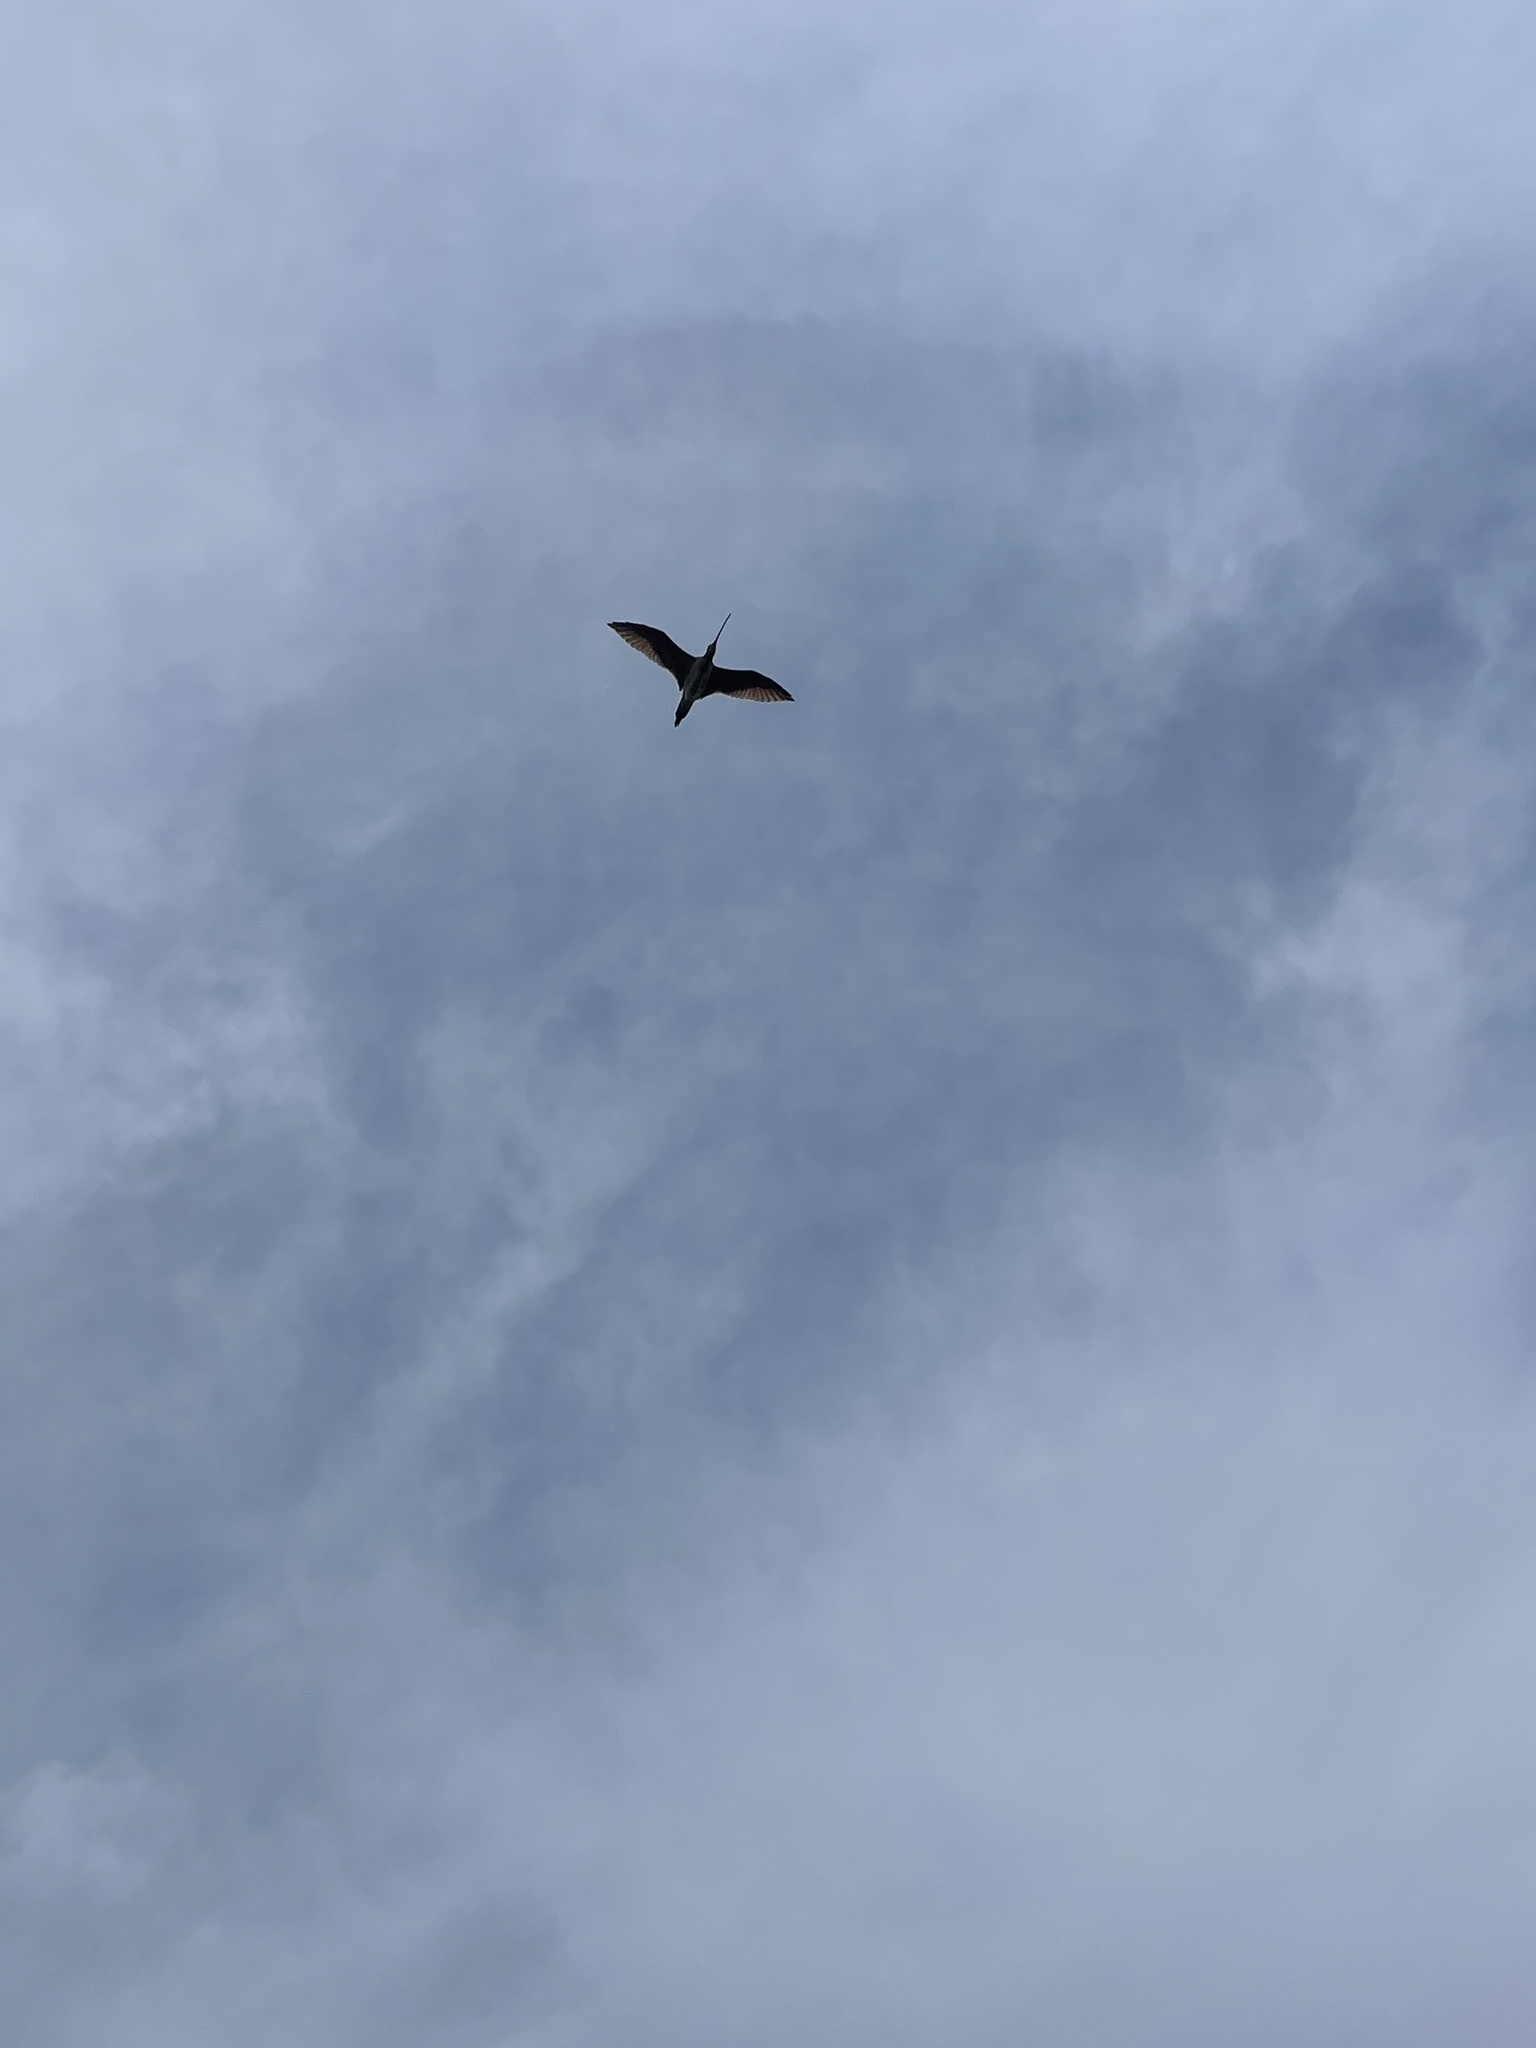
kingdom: Animalia
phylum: Chordata
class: Aves
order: Charadriiformes
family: Scolopacidae
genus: Numenius
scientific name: Numenius americanus
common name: Long-billed curlew
